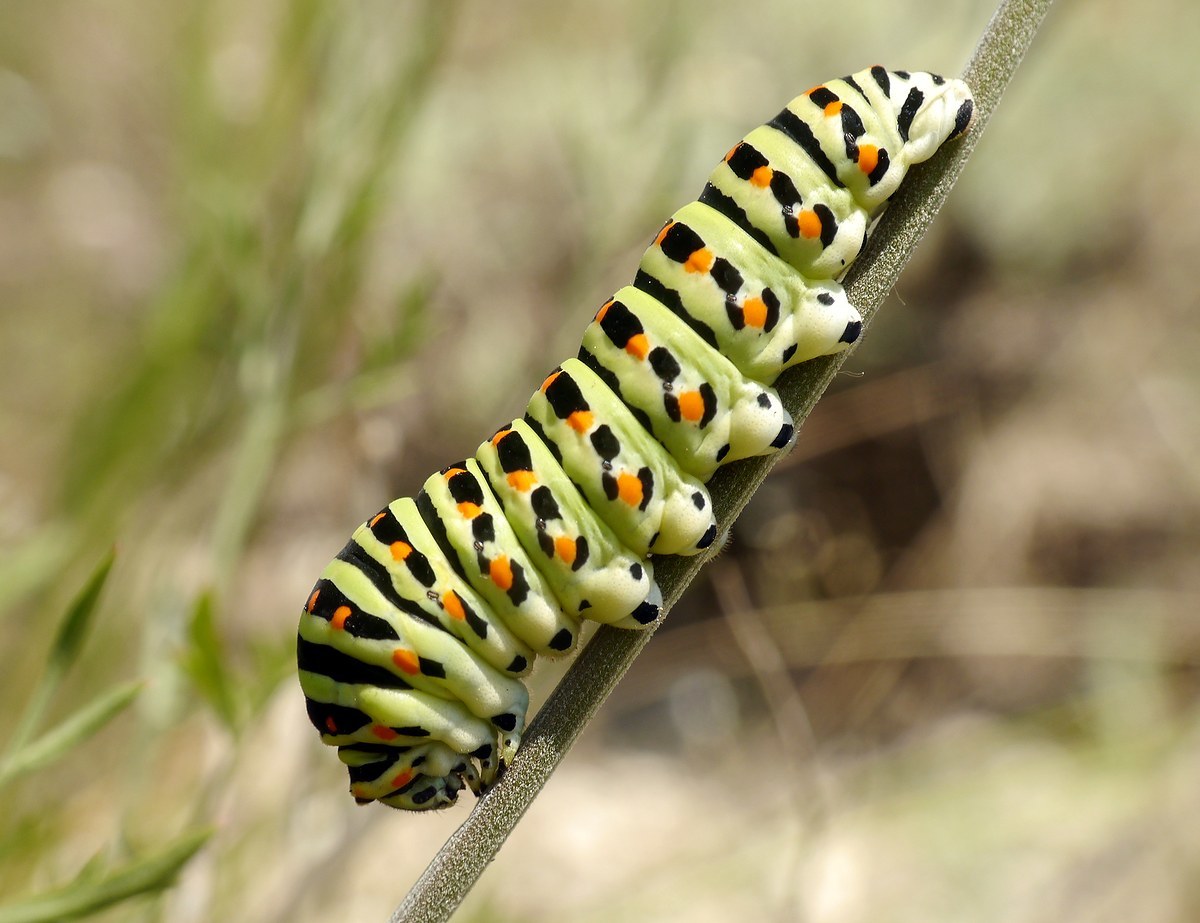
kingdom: Animalia
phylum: Arthropoda
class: Insecta
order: Lepidoptera
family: Papilionidae
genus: Papilio
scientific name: Papilio machaon
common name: Swallowtail
